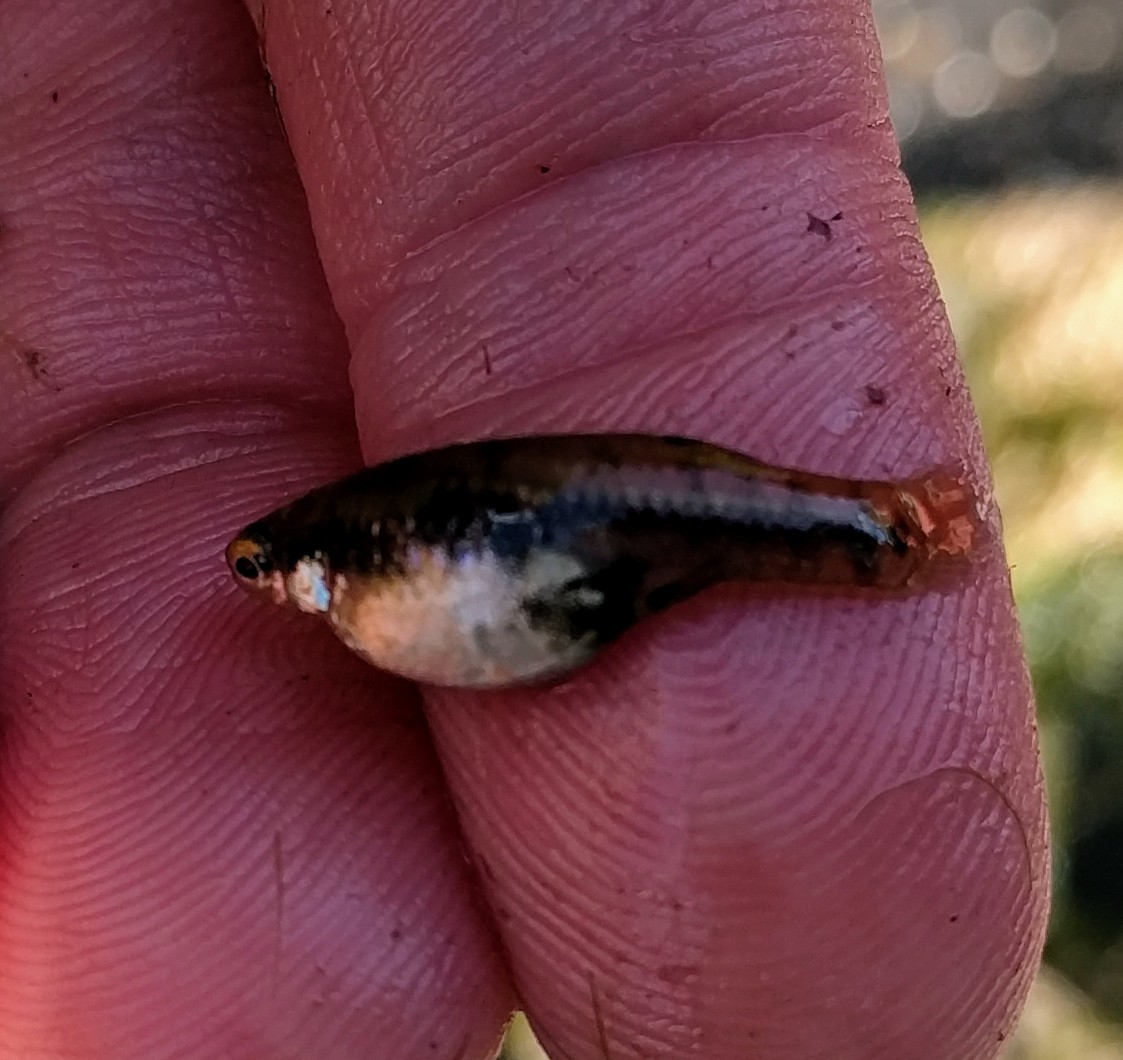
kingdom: Animalia
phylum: Chordata
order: Cyprinodontiformes
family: Poeciliidae
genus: Heterandria
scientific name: Heterandria formosa
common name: Least killifish
